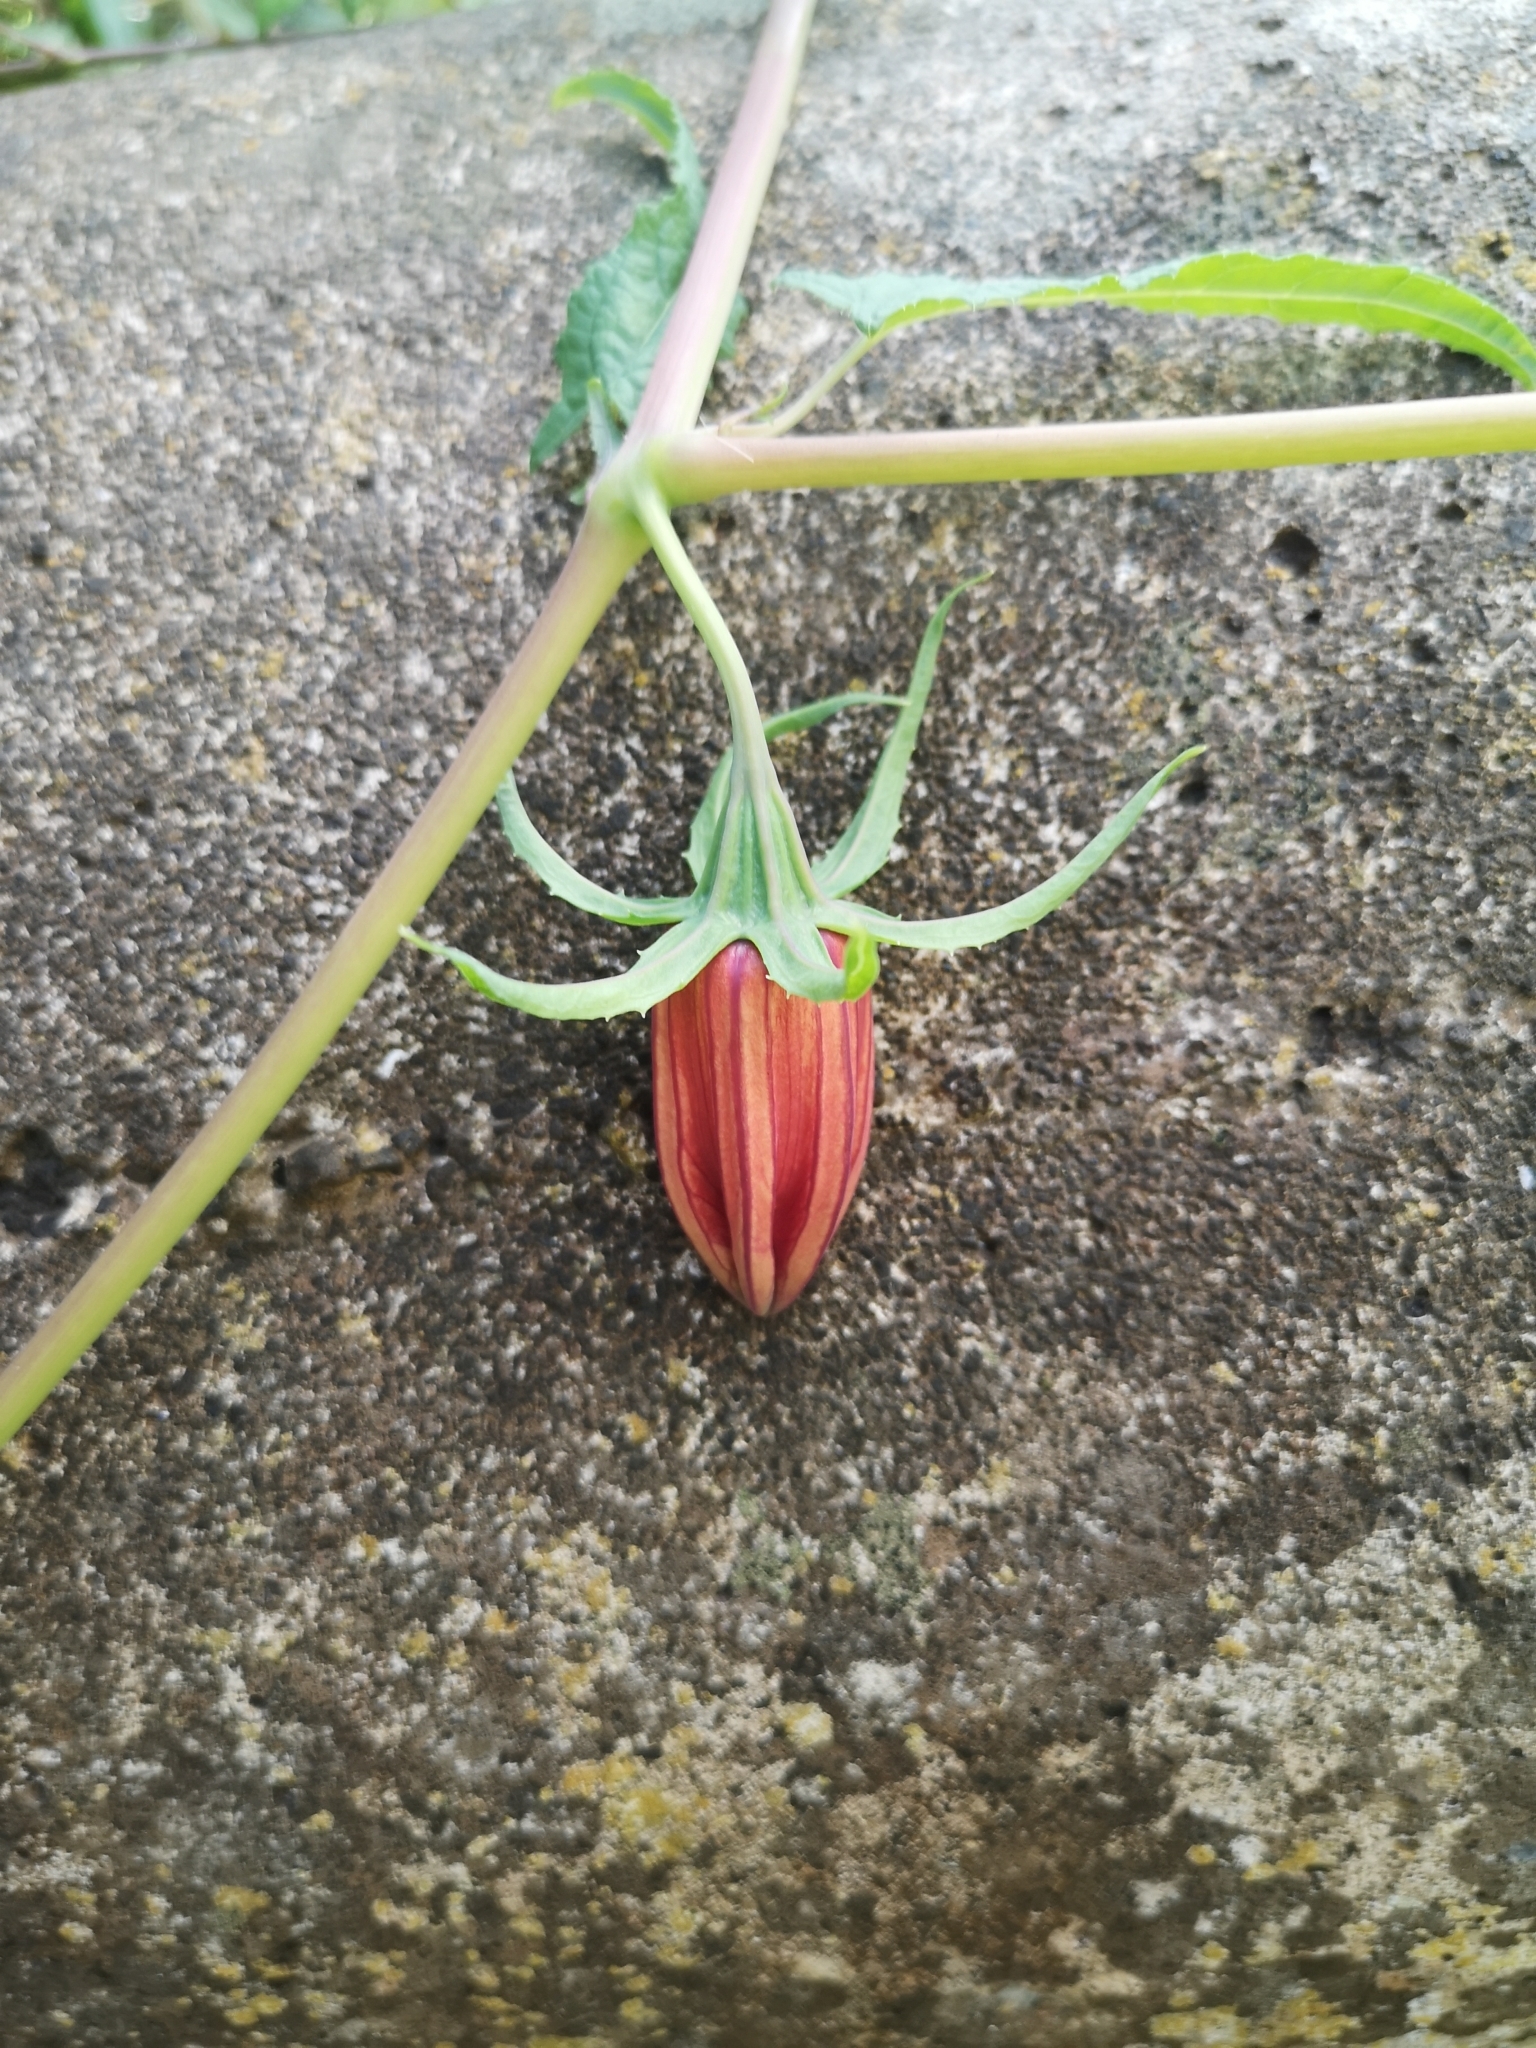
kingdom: Plantae
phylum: Tracheophyta
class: Magnoliopsida
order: Asterales
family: Campanulaceae
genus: Canarina
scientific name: Canarina canariensis
